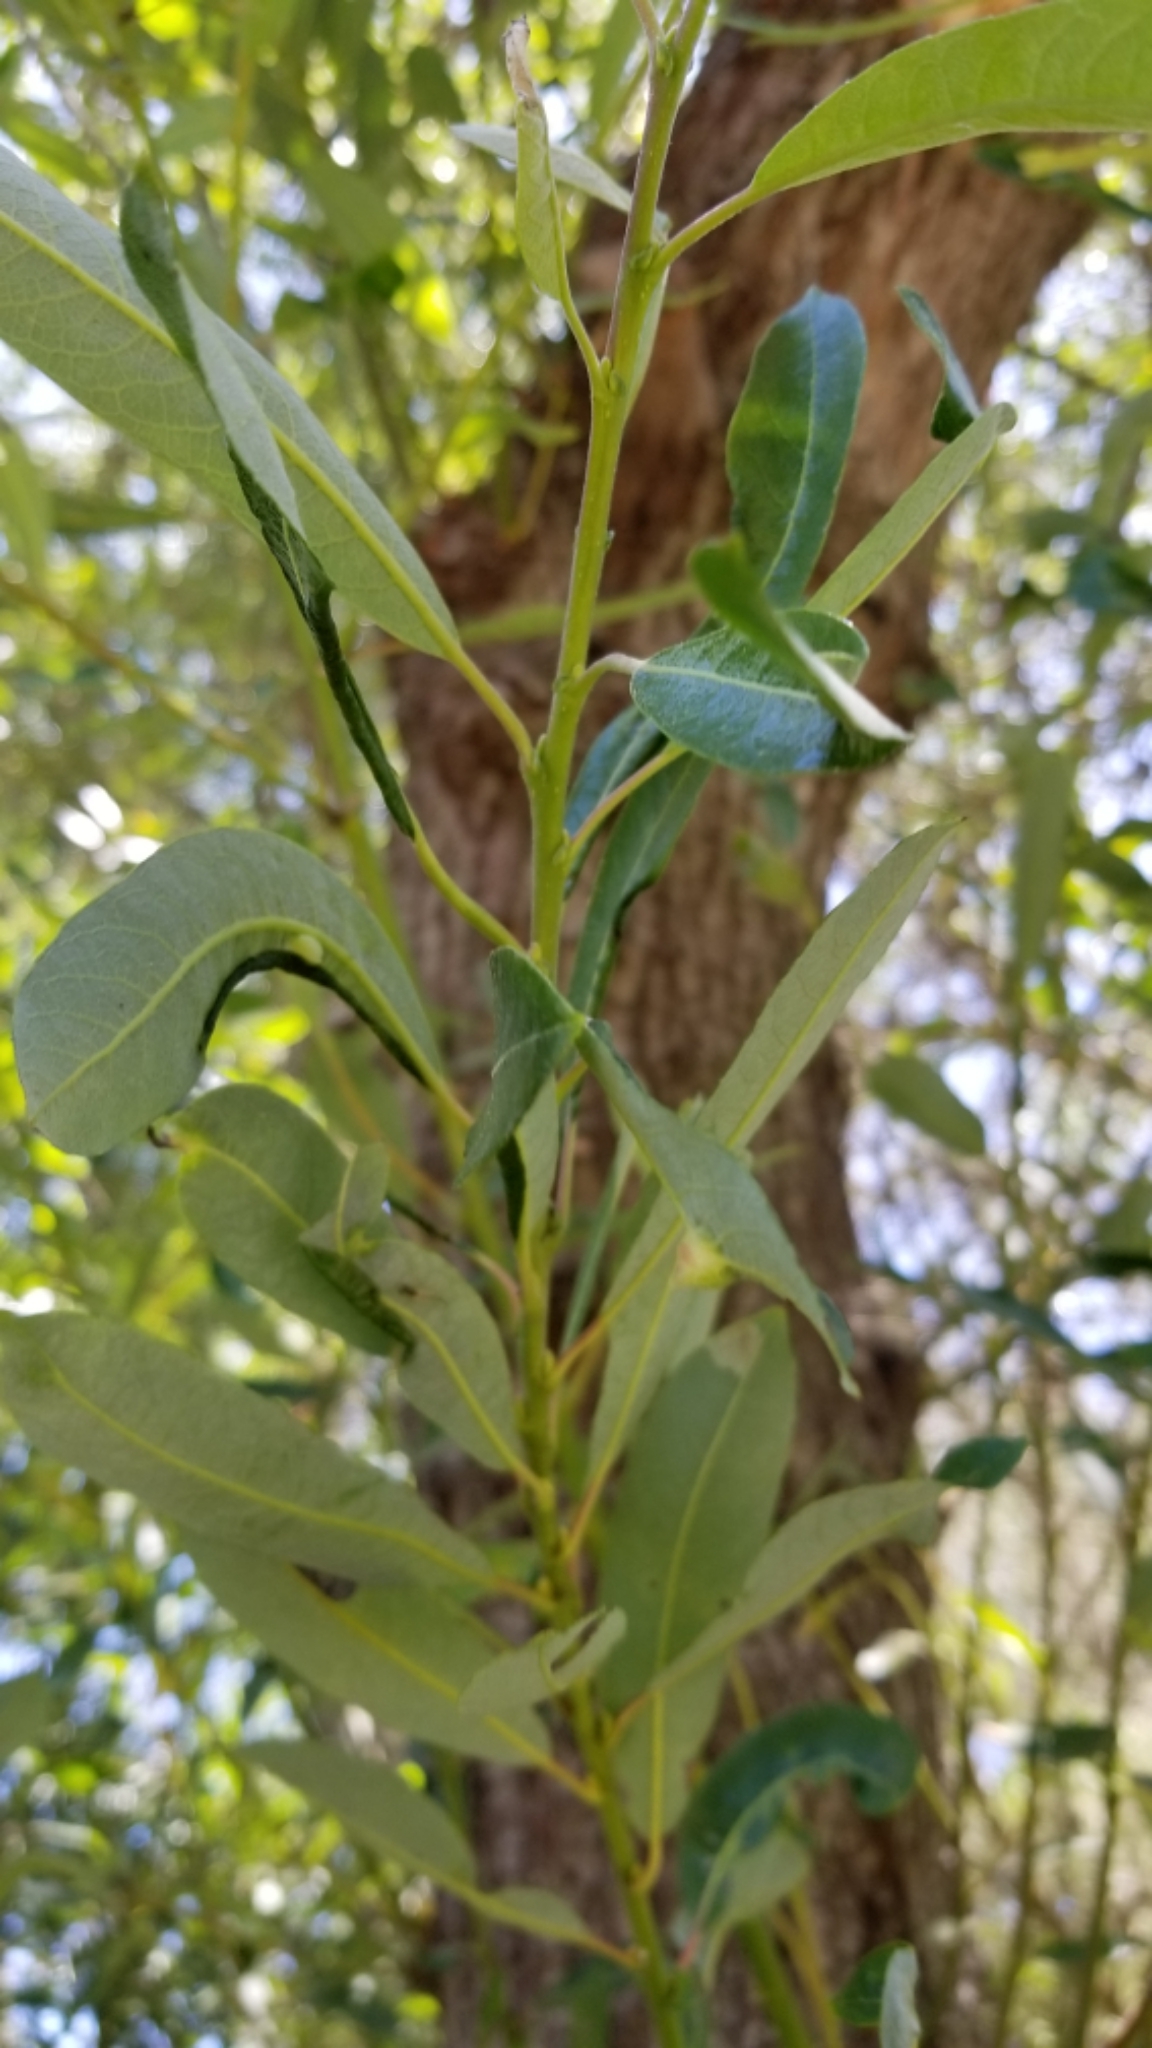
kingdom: Plantae
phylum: Tracheophyta
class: Magnoliopsida
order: Malpighiales
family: Salicaceae
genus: Salix
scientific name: Salix lasiolepis
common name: Arroyo willow
